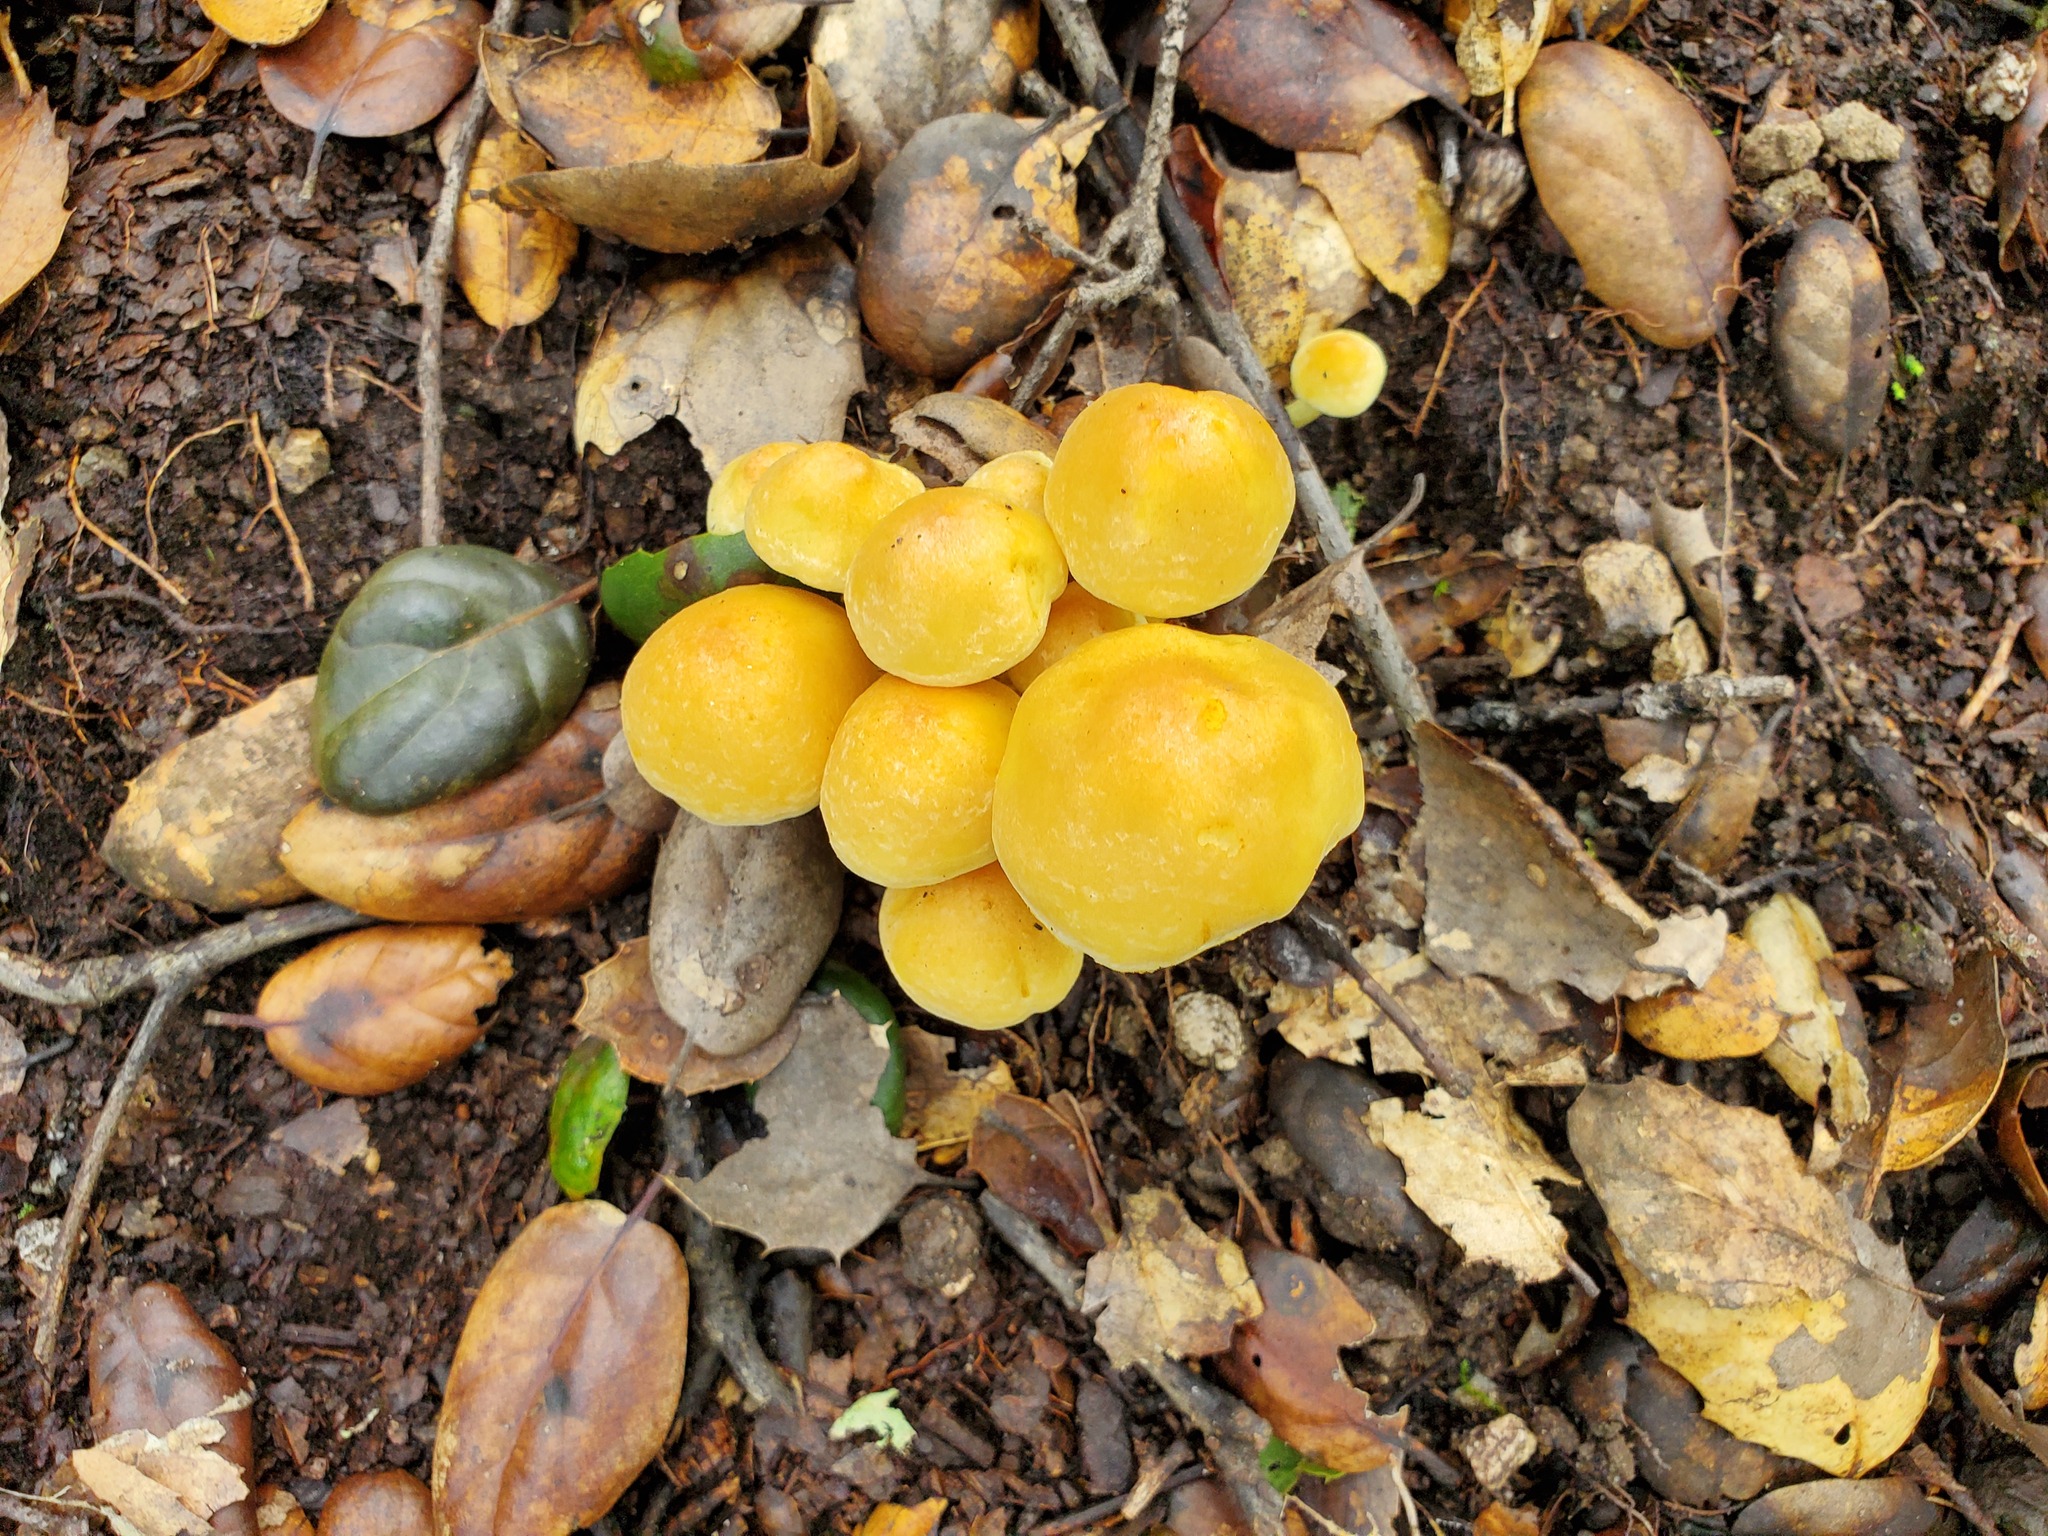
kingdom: Fungi
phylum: Basidiomycota
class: Agaricomycetes
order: Agaricales
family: Strophariaceae
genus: Hypholoma
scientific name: Hypholoma fasciculare
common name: Sulphur tuft
